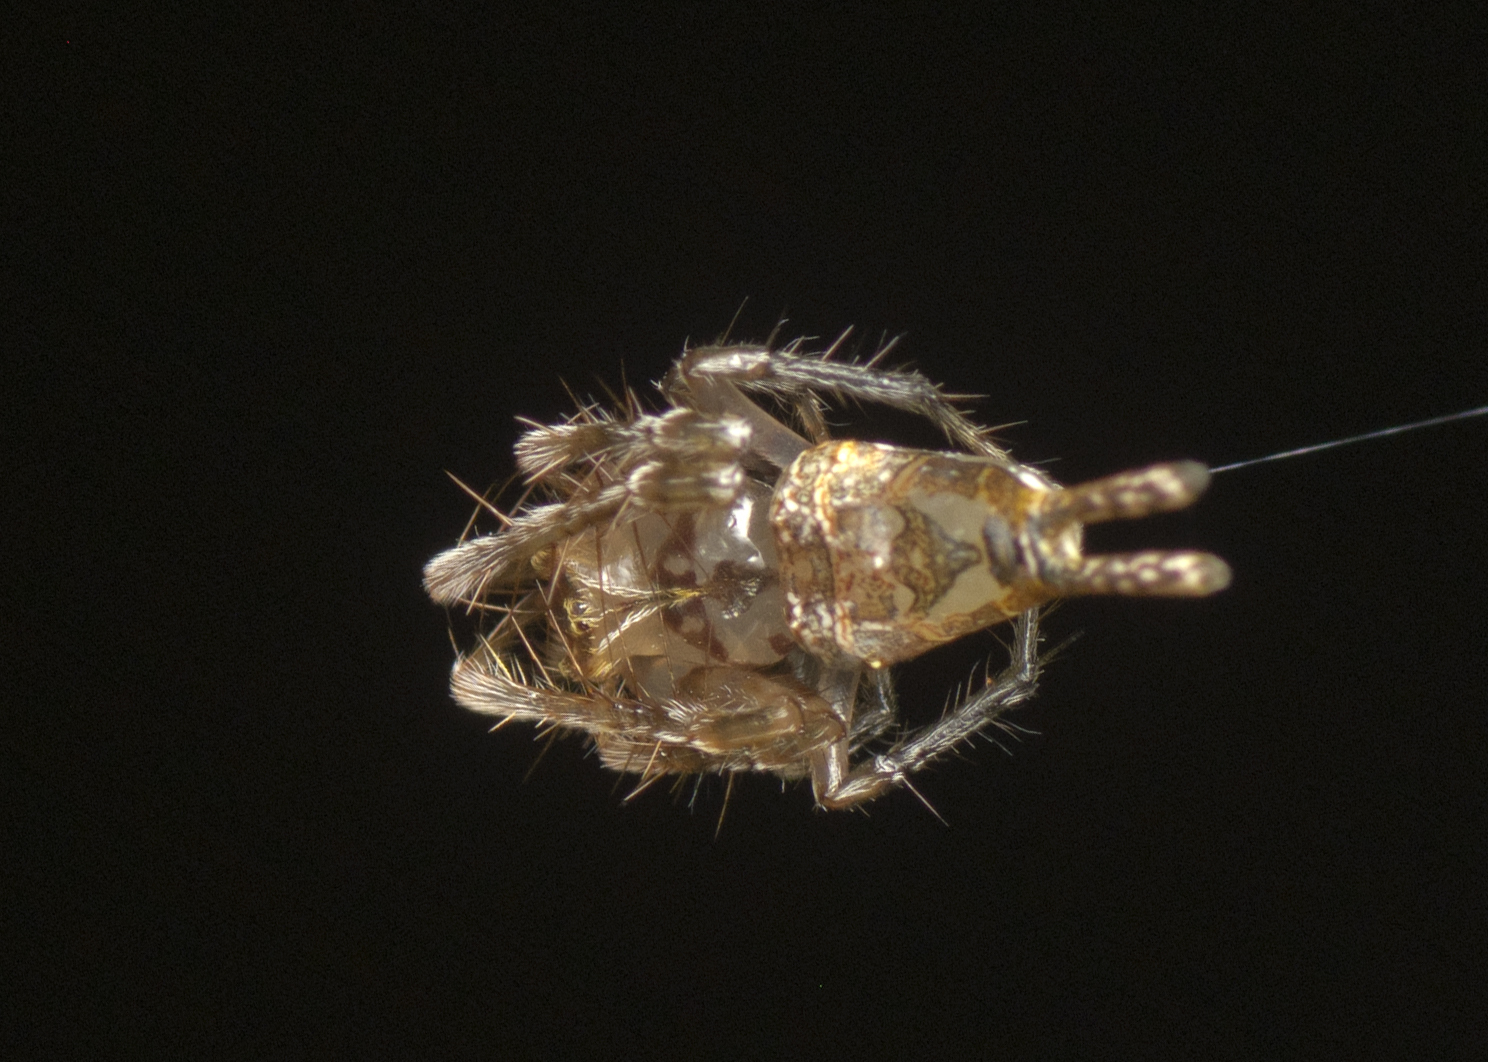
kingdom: Animalia
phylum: Arthropoda
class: Arachnida
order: Araneae
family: Arkyidae
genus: Arkys
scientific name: Arkys furcatus
